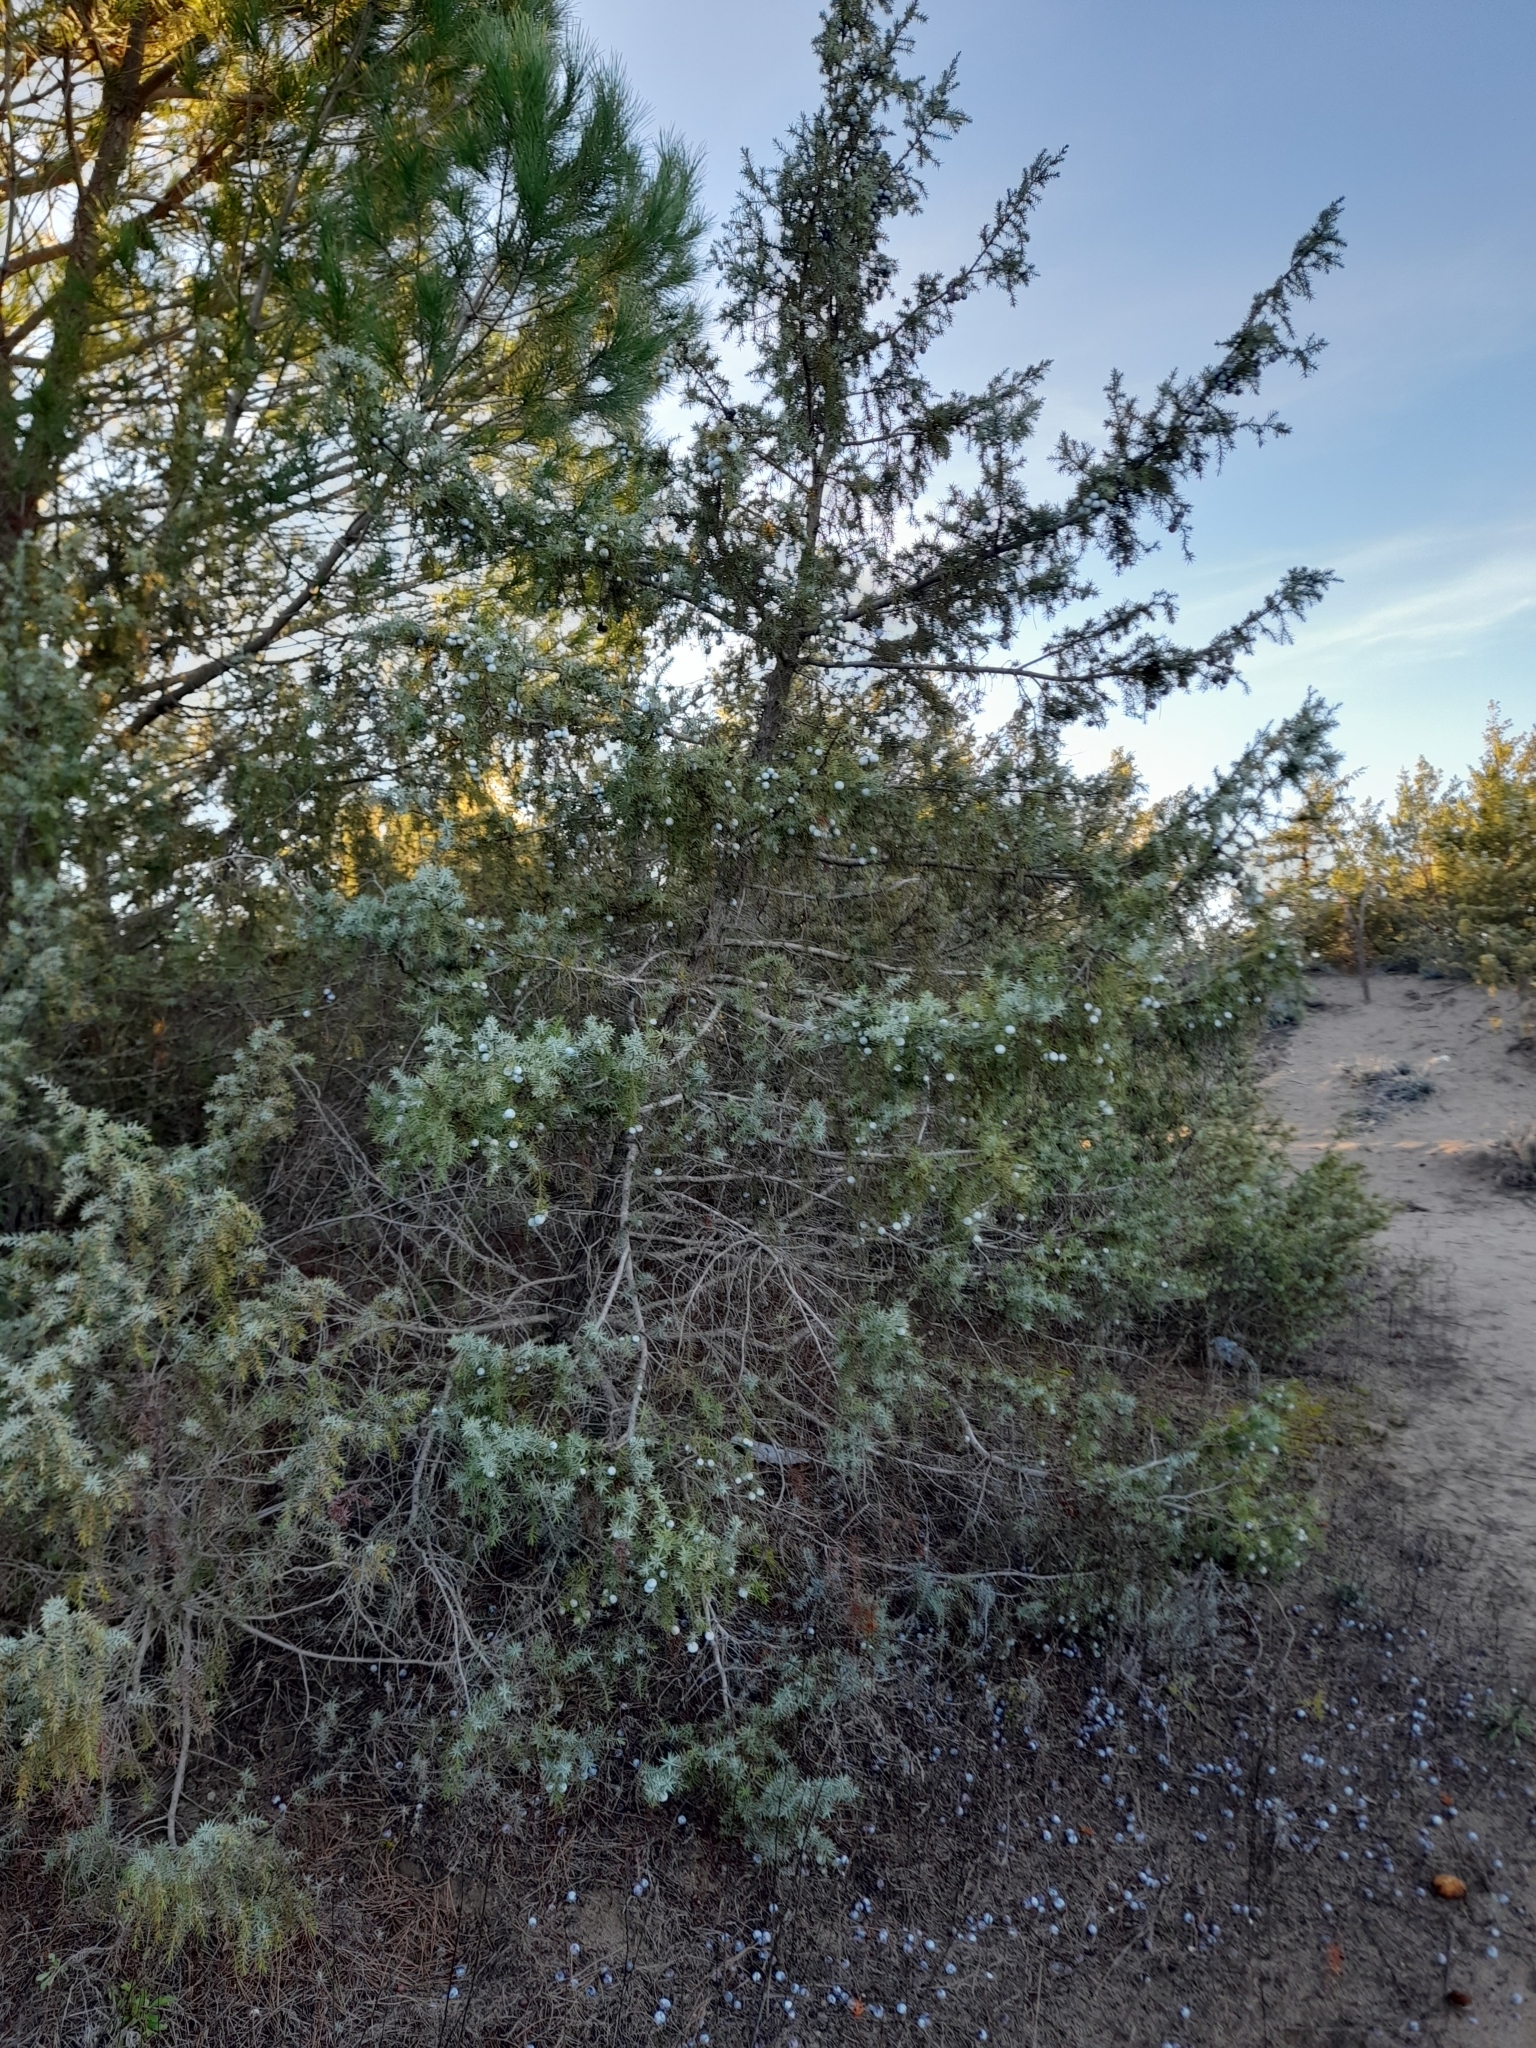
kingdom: Plantae
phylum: Tracheophyta
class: Pinopsida
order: Pinales
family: Cupressaceae
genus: Juniperus
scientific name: Juniperus oxycedrus
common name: Prickly juniper
